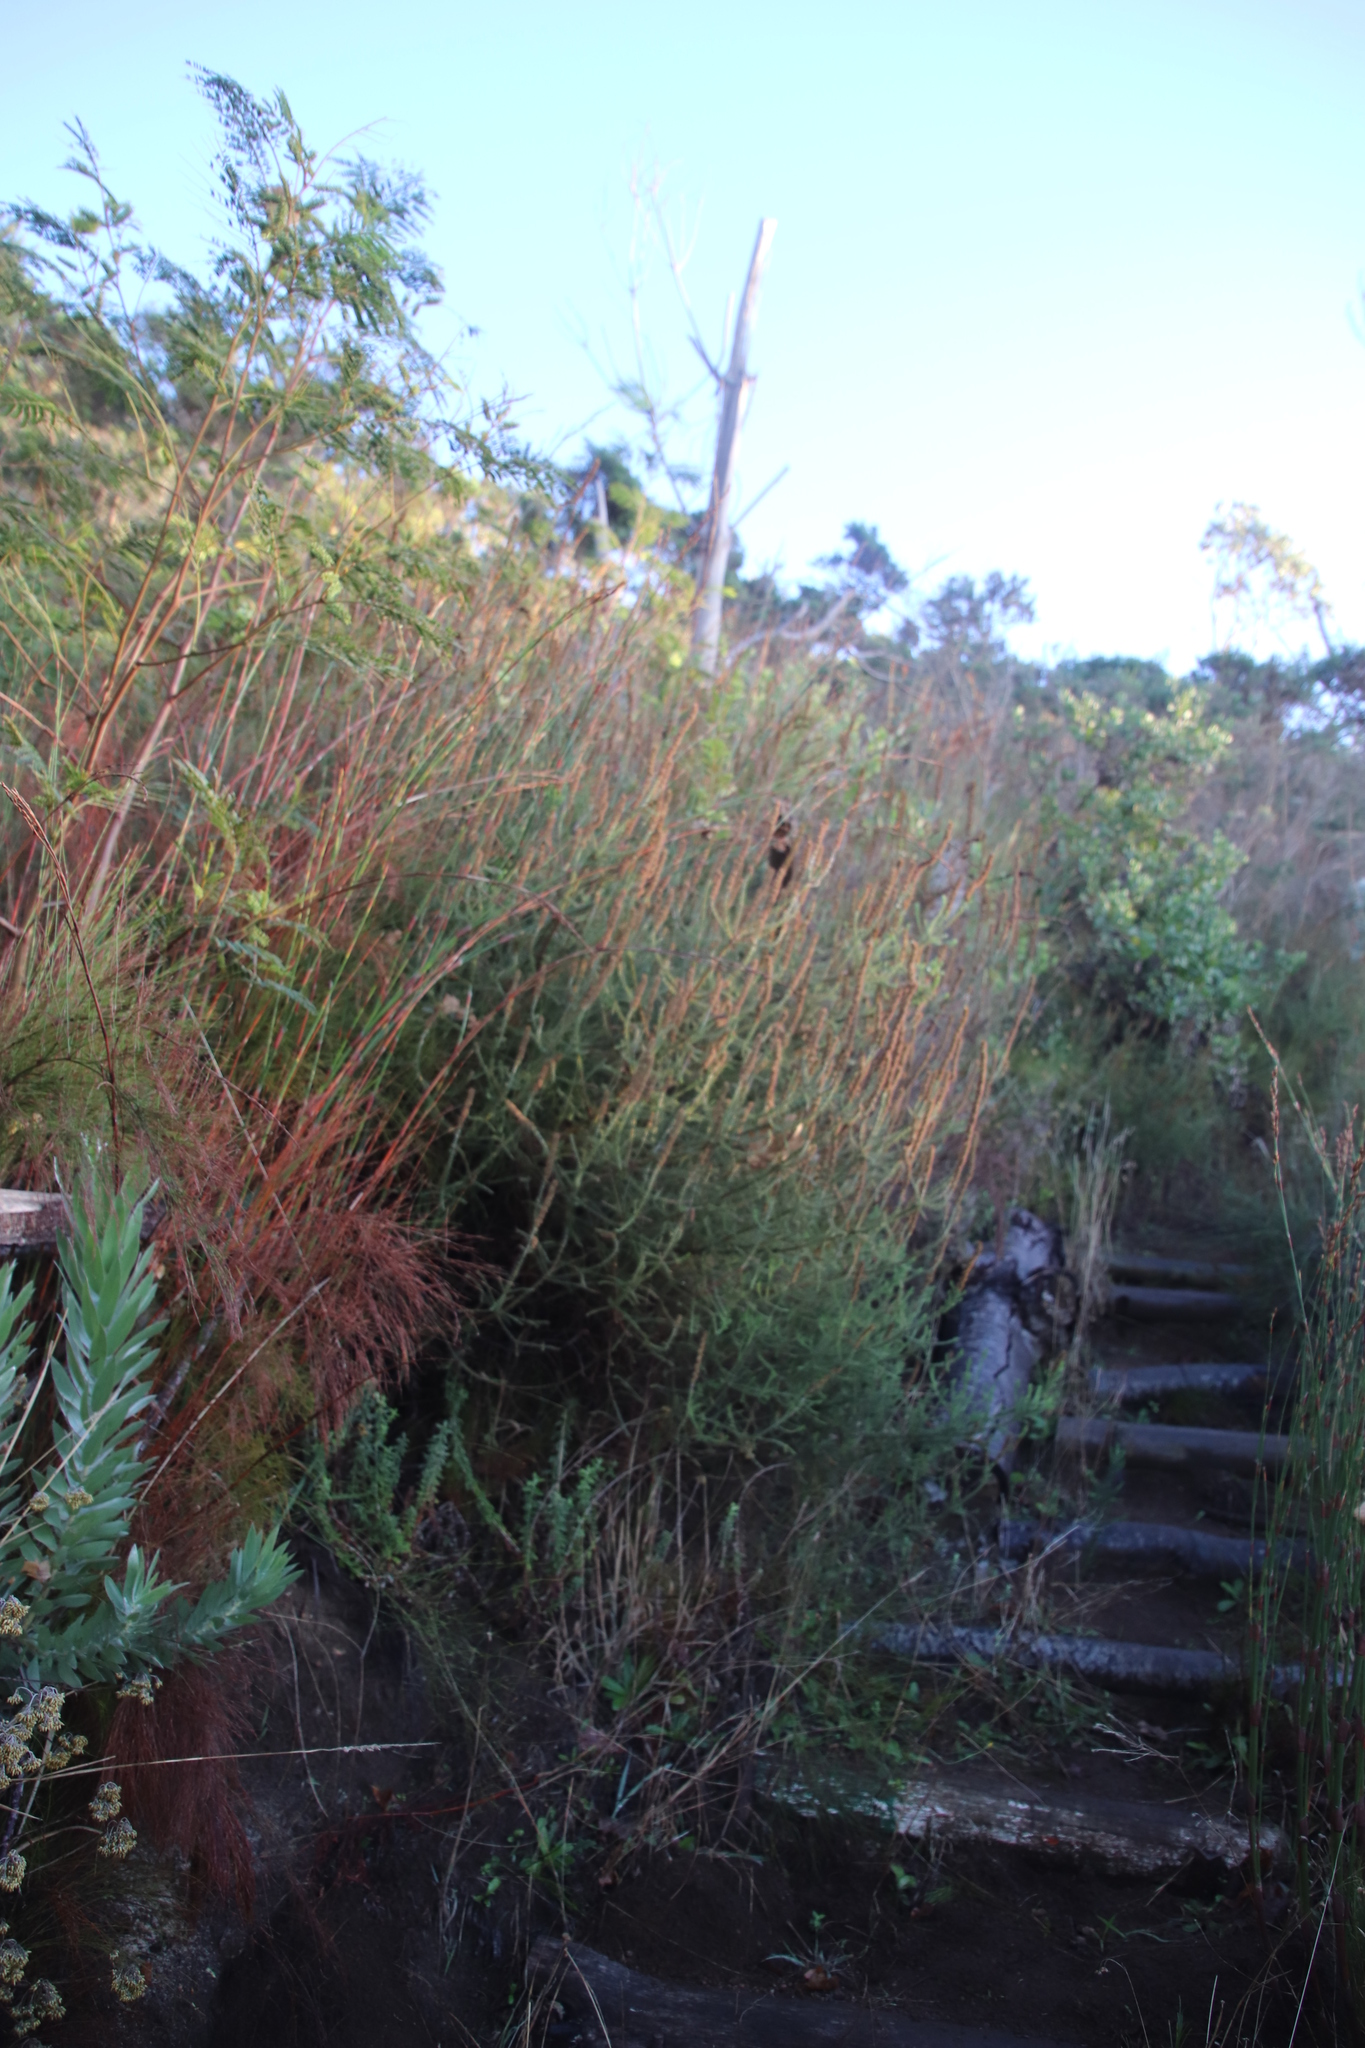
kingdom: Plantae
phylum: Tracheophyta
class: Magnoliopsida
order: Asterales
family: Asteraceae
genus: Seriphium
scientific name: Seriphium cinereum
